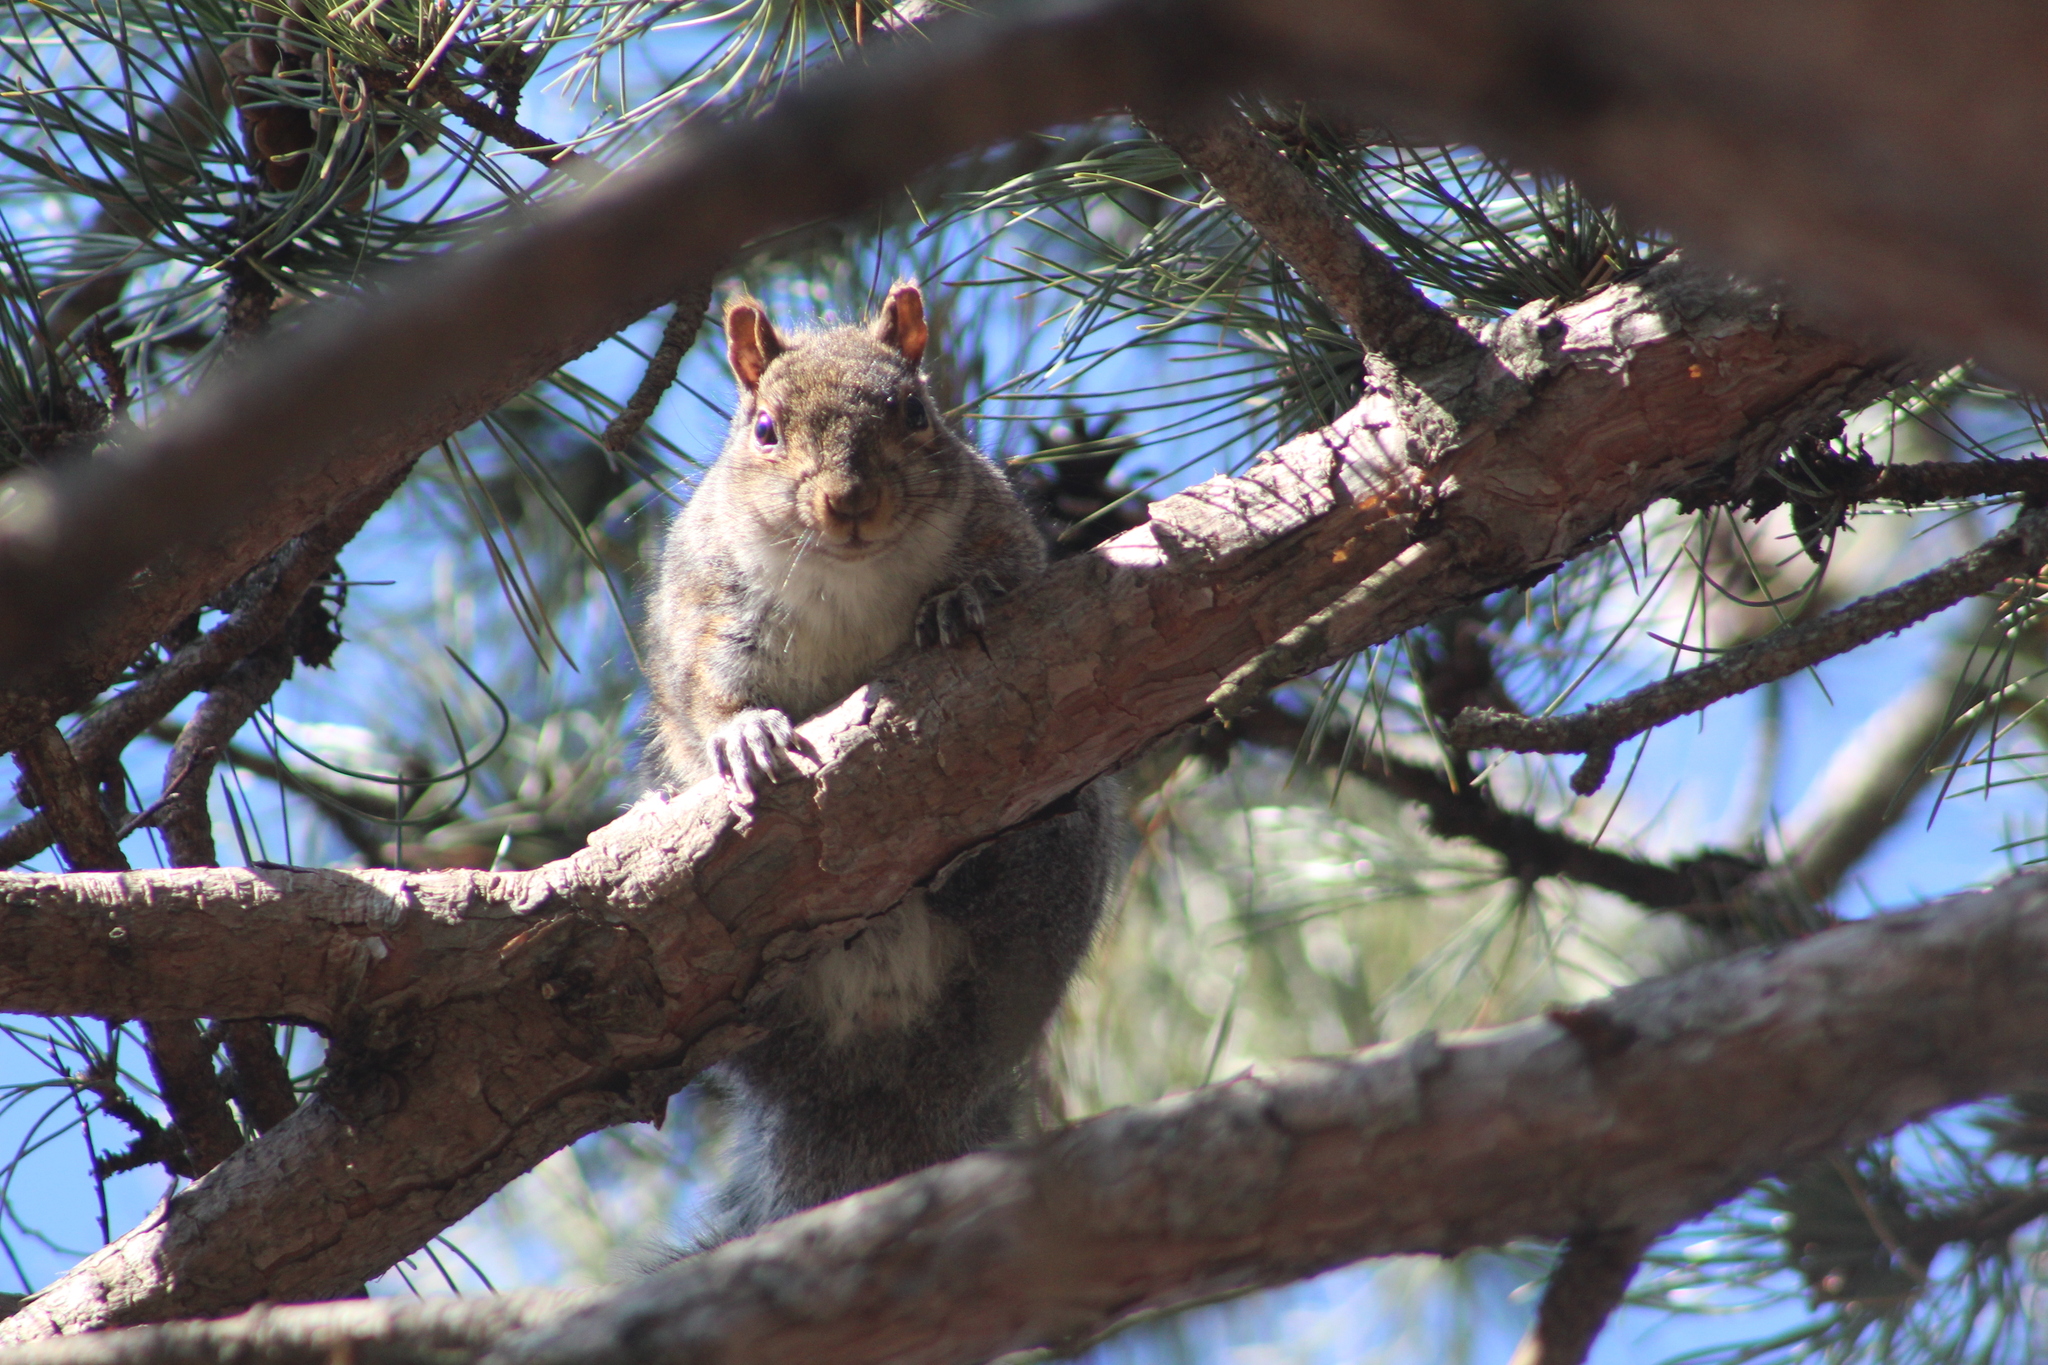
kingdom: Animalia
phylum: Chordata
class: Mammalia
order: Rodentia
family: Sciuridae
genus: Sciurus
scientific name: Sciurus carolinensis
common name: Eastern gray squirrel
